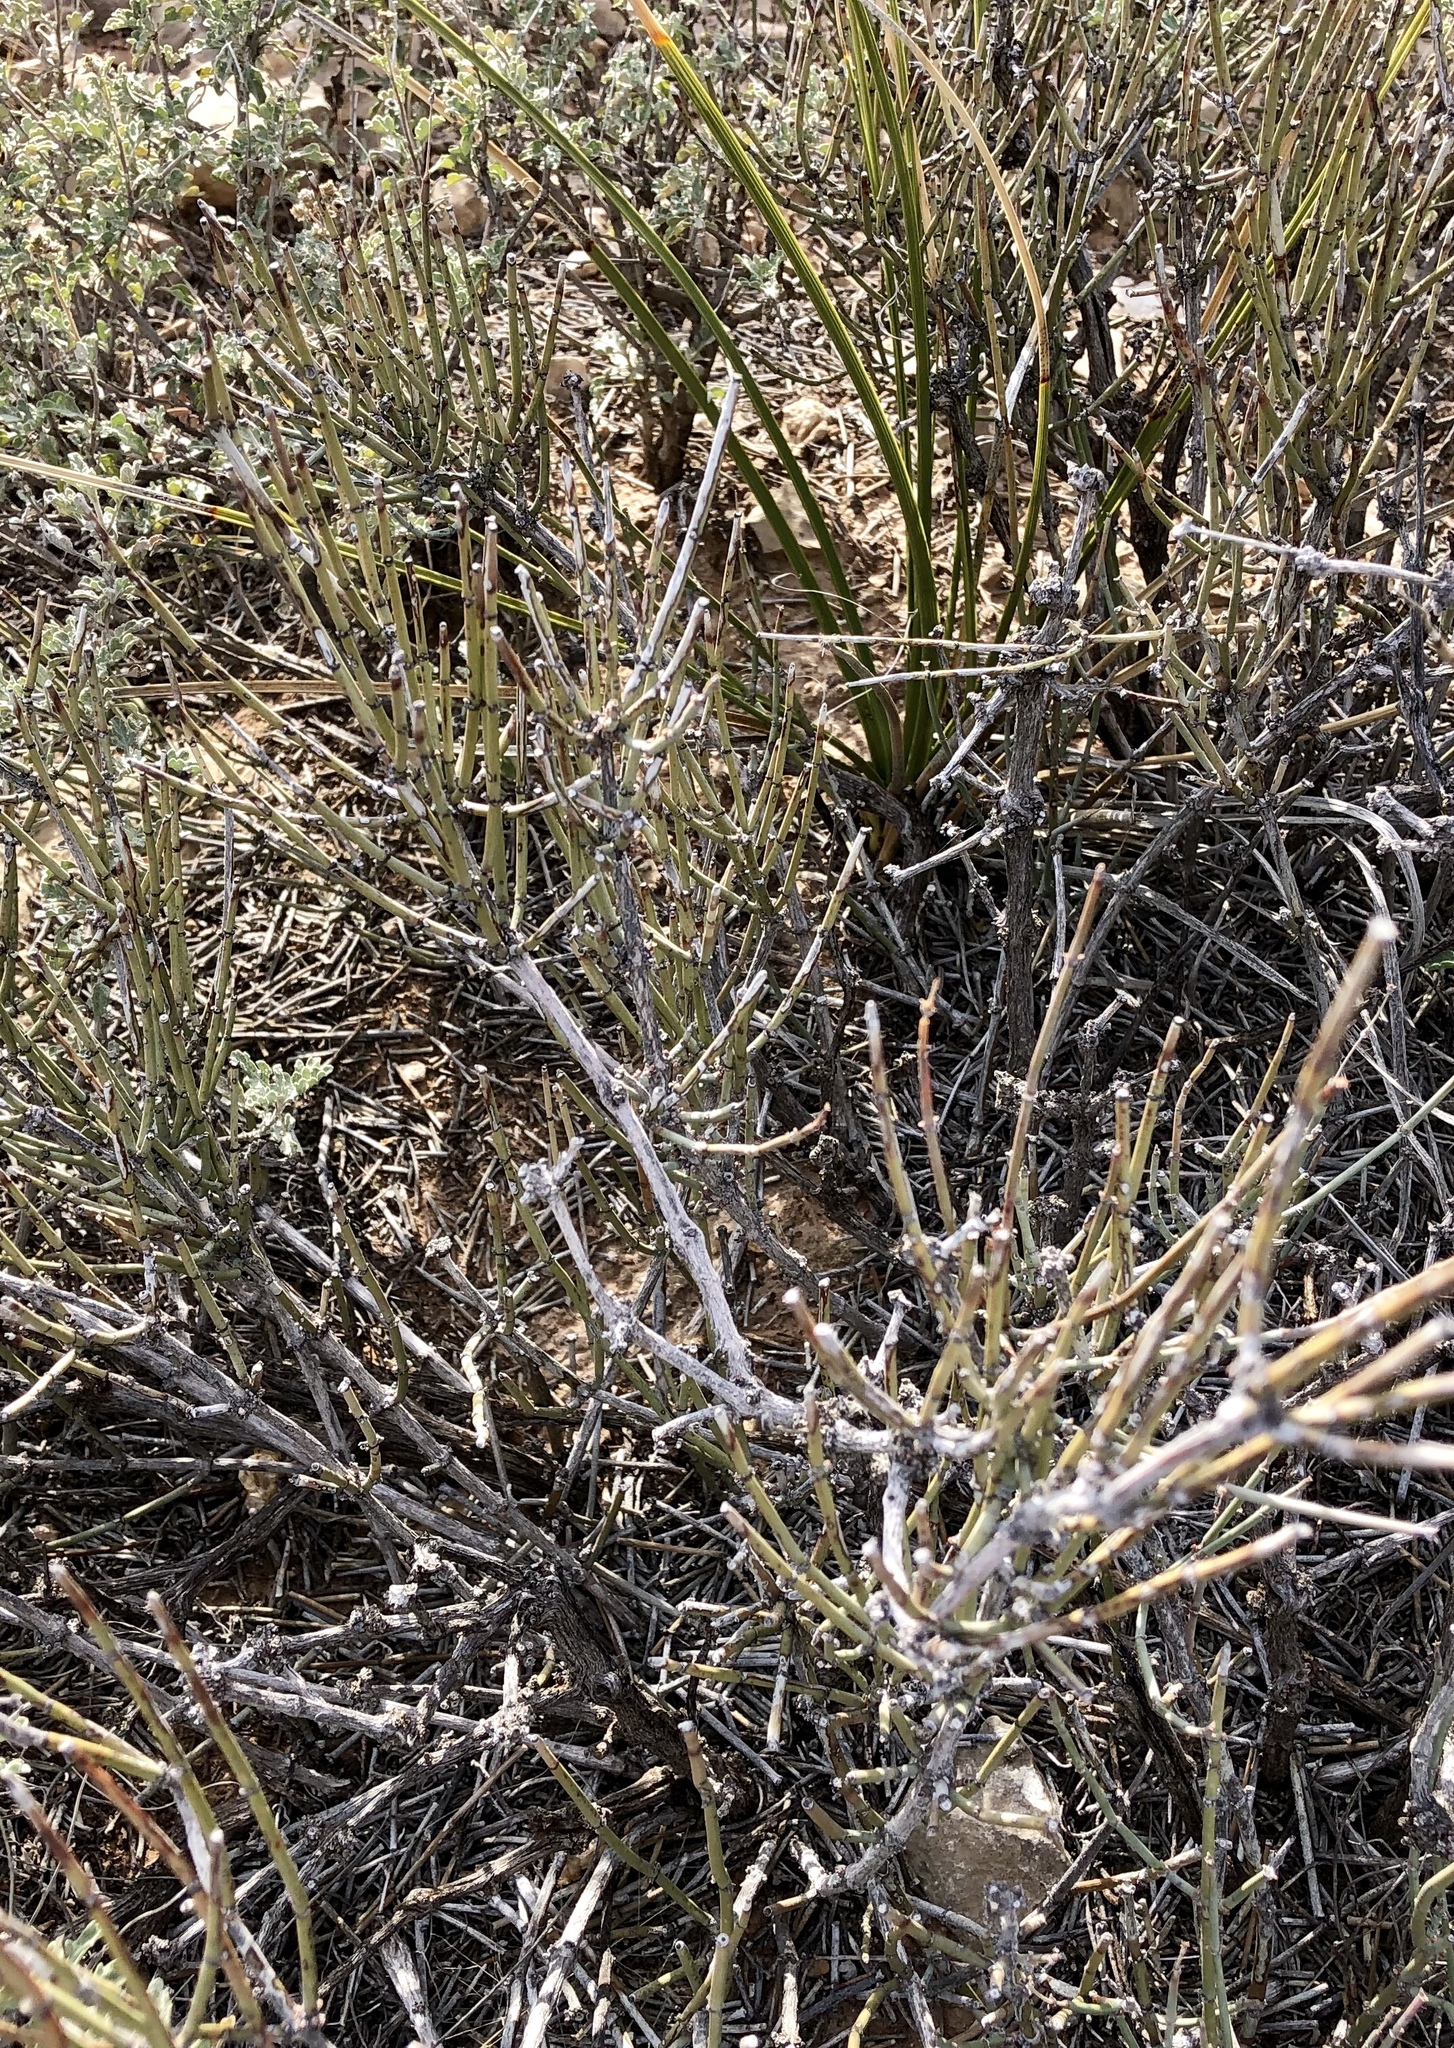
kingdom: Plantae
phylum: Tracheophyta
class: Gnetopsida
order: Ephedrales
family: Ephedraceae
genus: Ephedra
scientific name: Ephedra trifurca
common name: Mexican-tea
